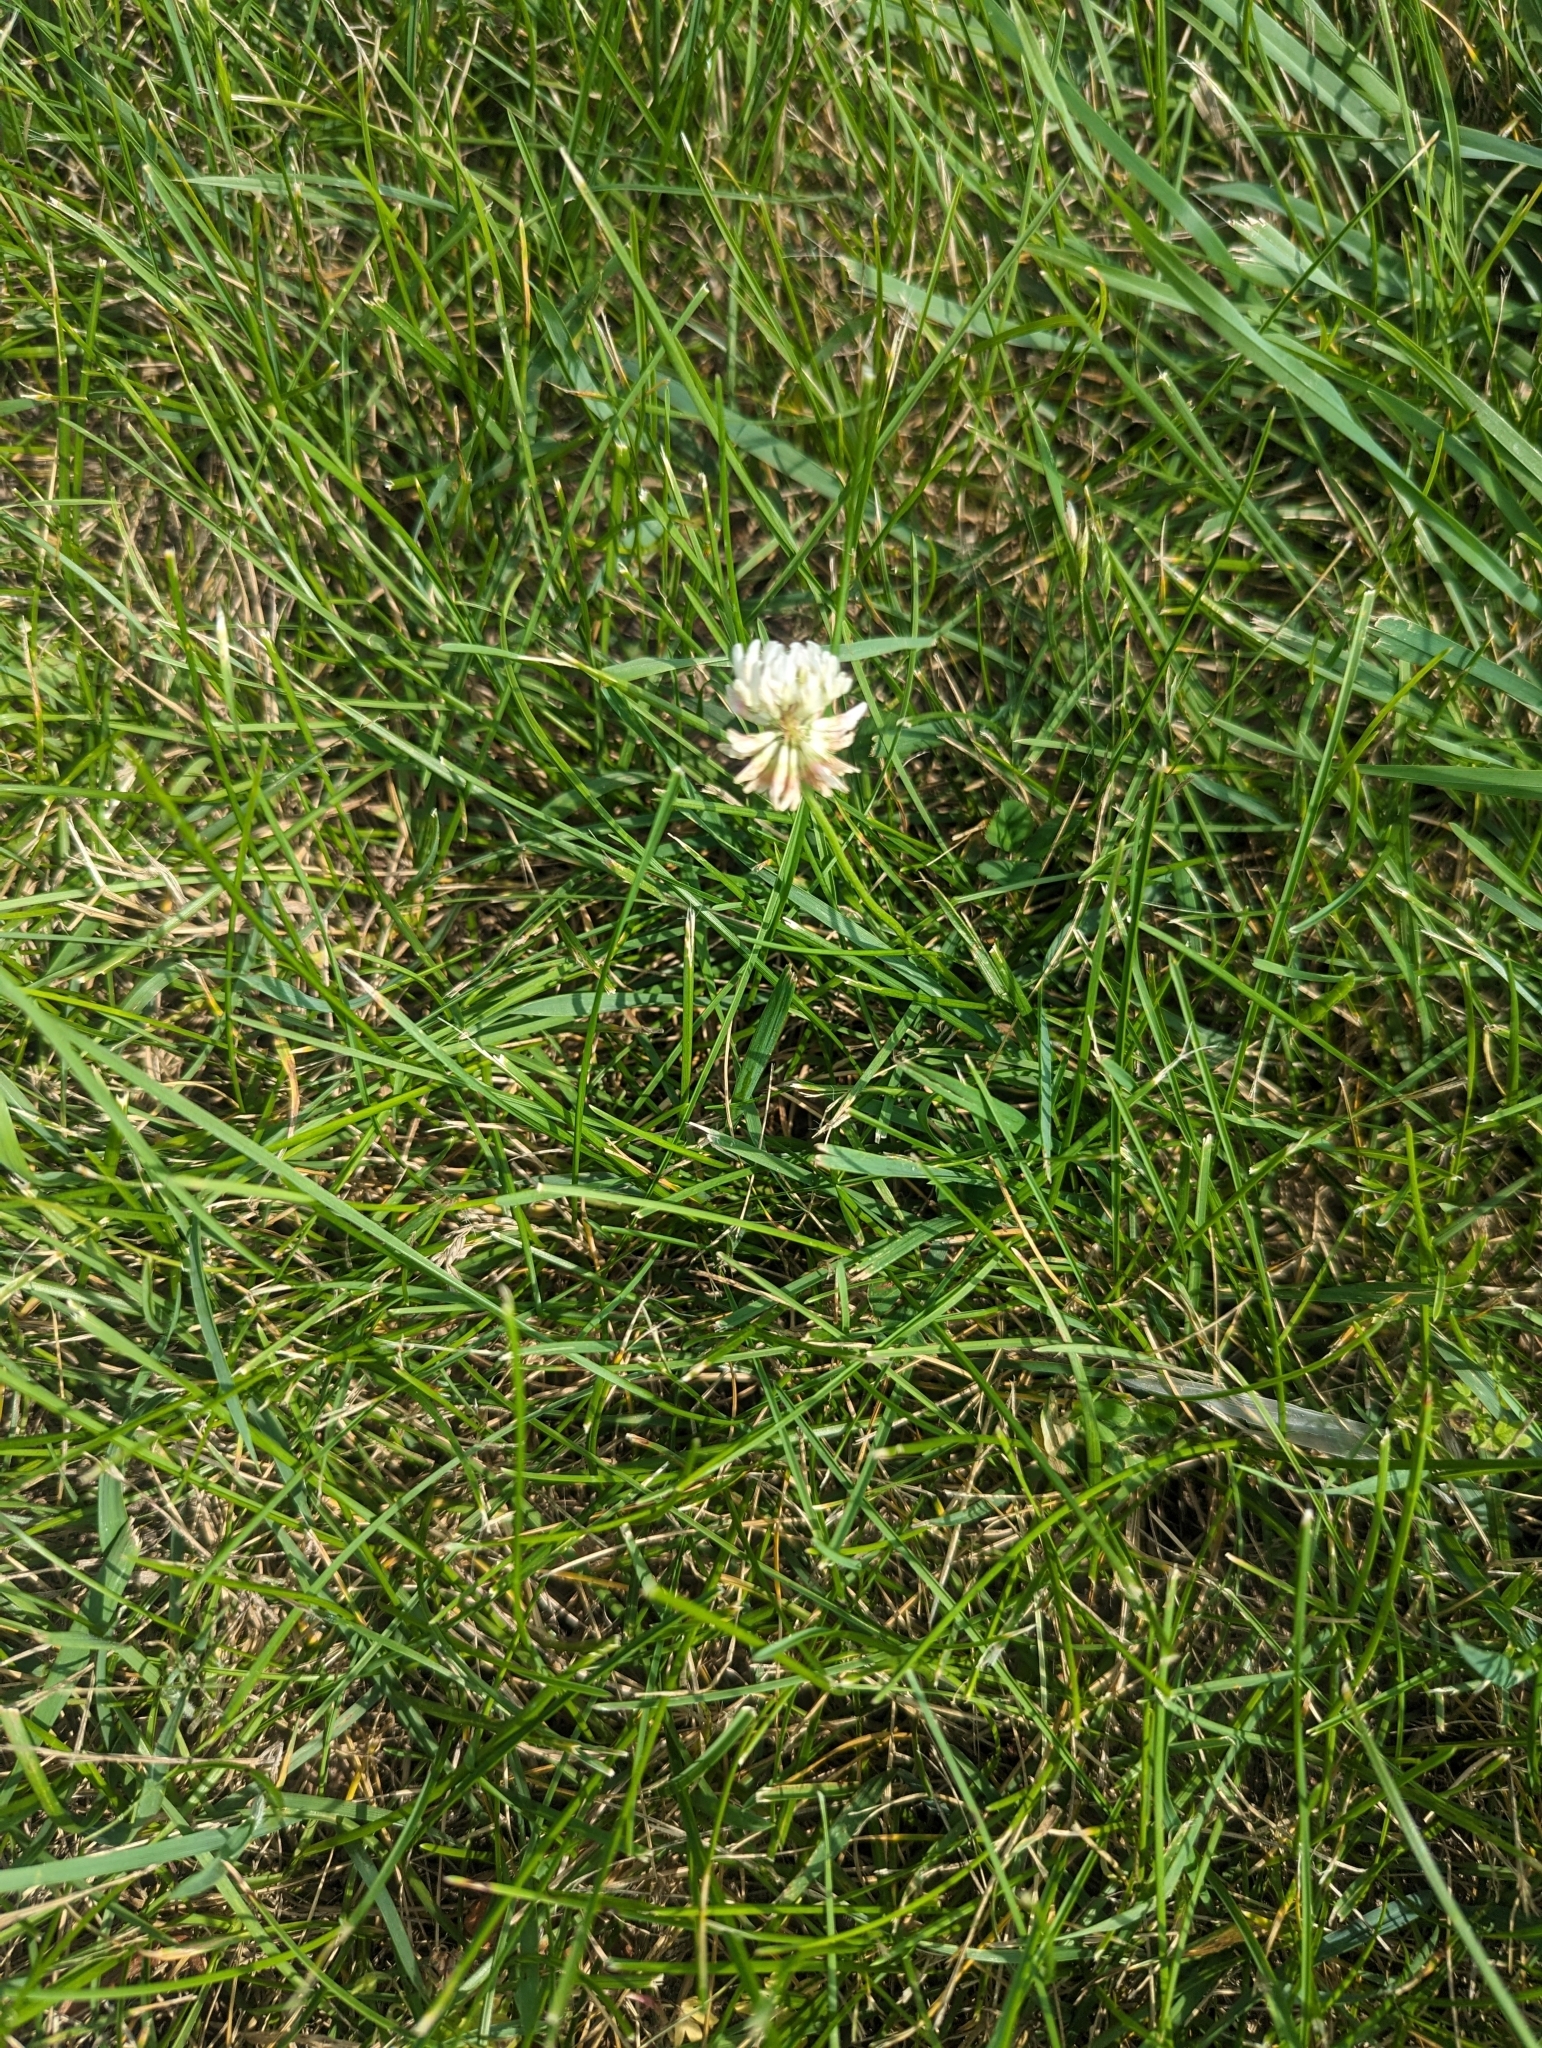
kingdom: Plantae
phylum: Tracheophyta
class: Magnoliopsida
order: Fabales
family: Fabaceae
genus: Trifolium
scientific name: Trifolium repens
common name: White clover
